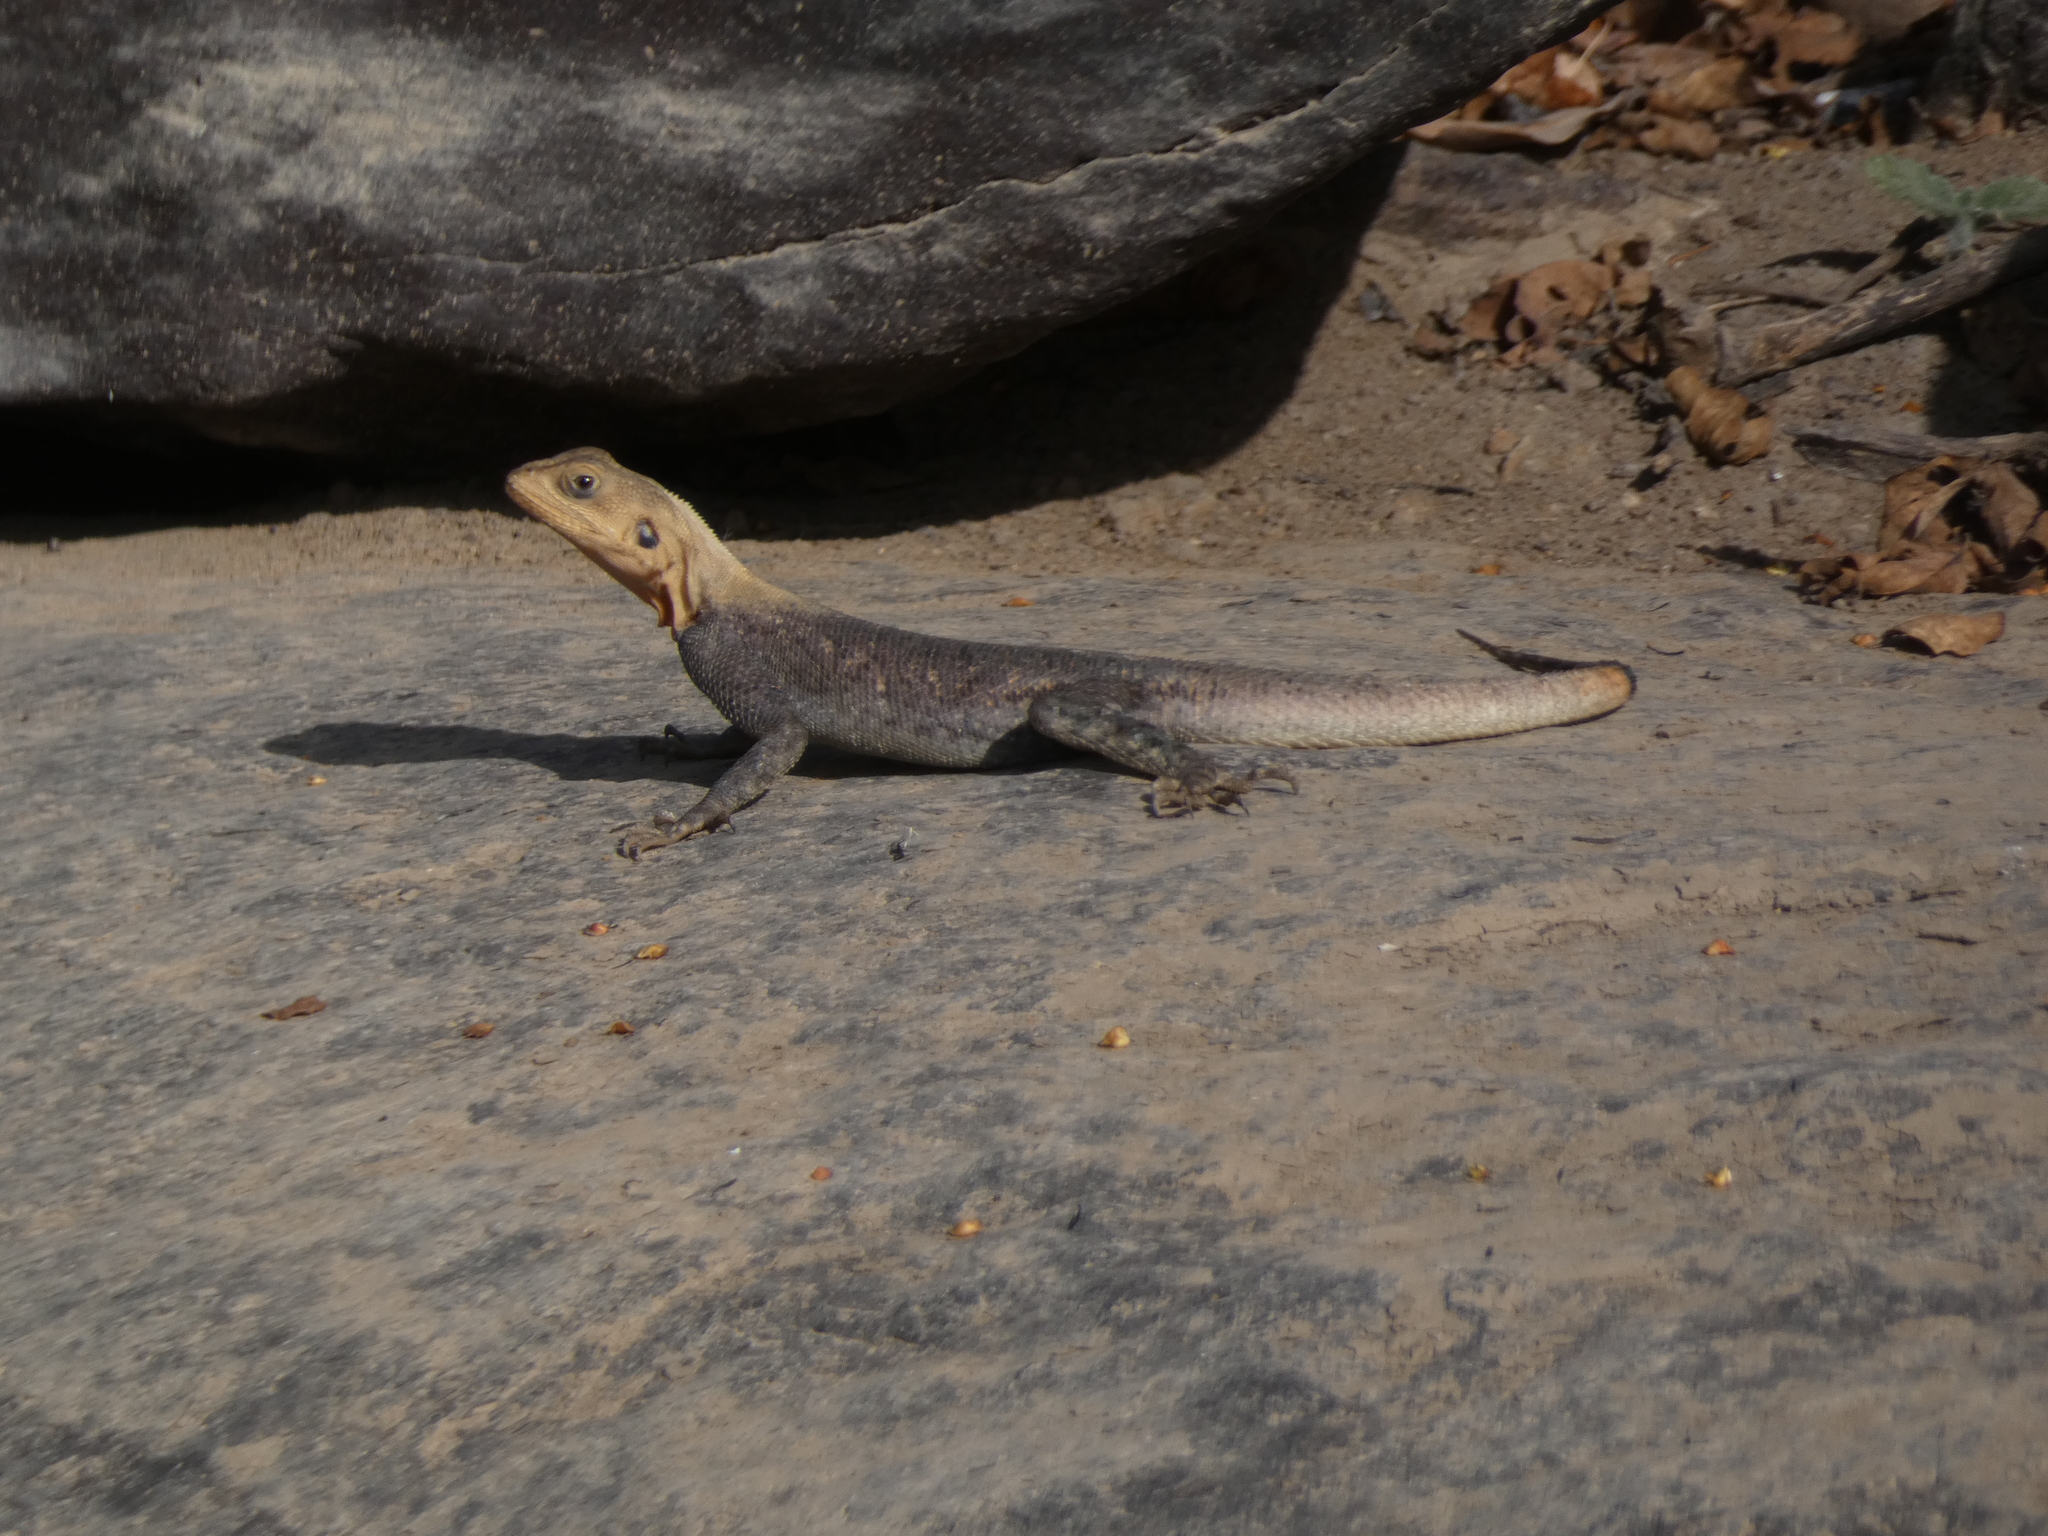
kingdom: Animalia
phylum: Chordata
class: Squamata
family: Agamidae
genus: Agama
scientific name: Agama picticauda
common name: Red-headed agama
